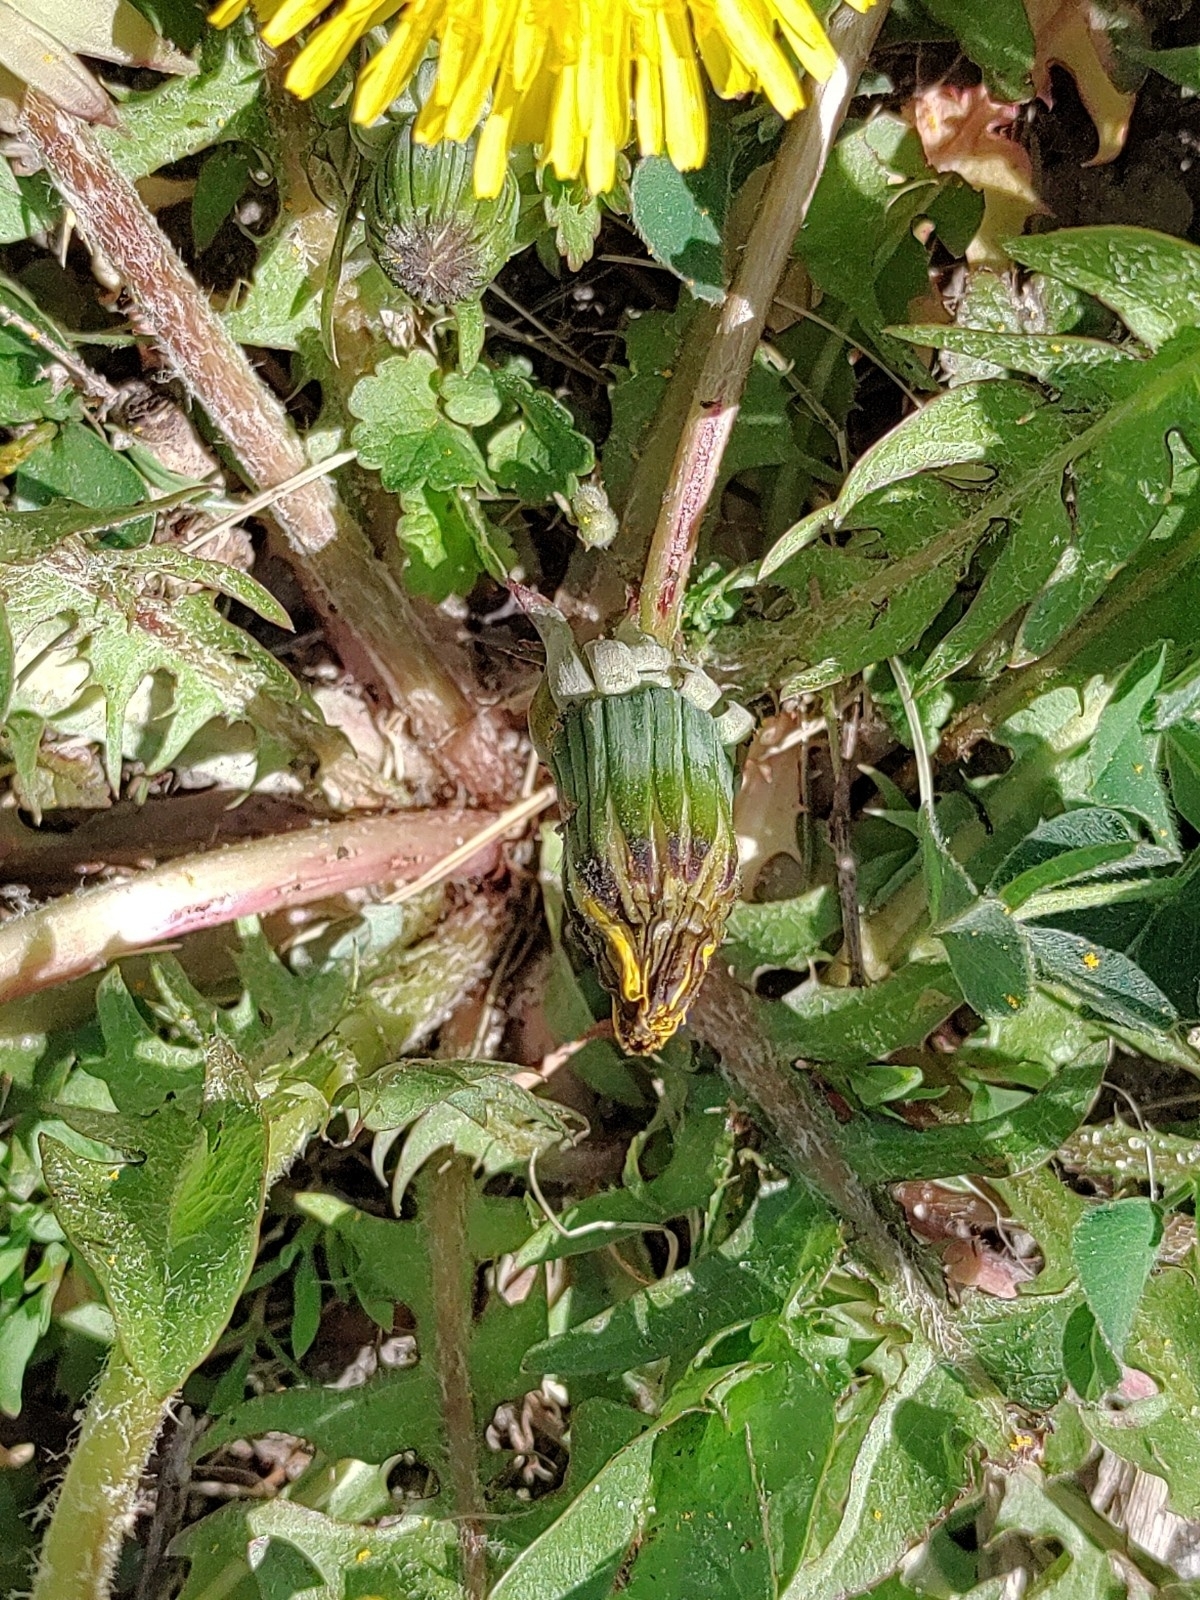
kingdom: Plantae
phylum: Tracheophyta
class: Magnoliopsida
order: Asterales
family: Asteraceae
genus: Taraxacum
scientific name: Taraxacum
